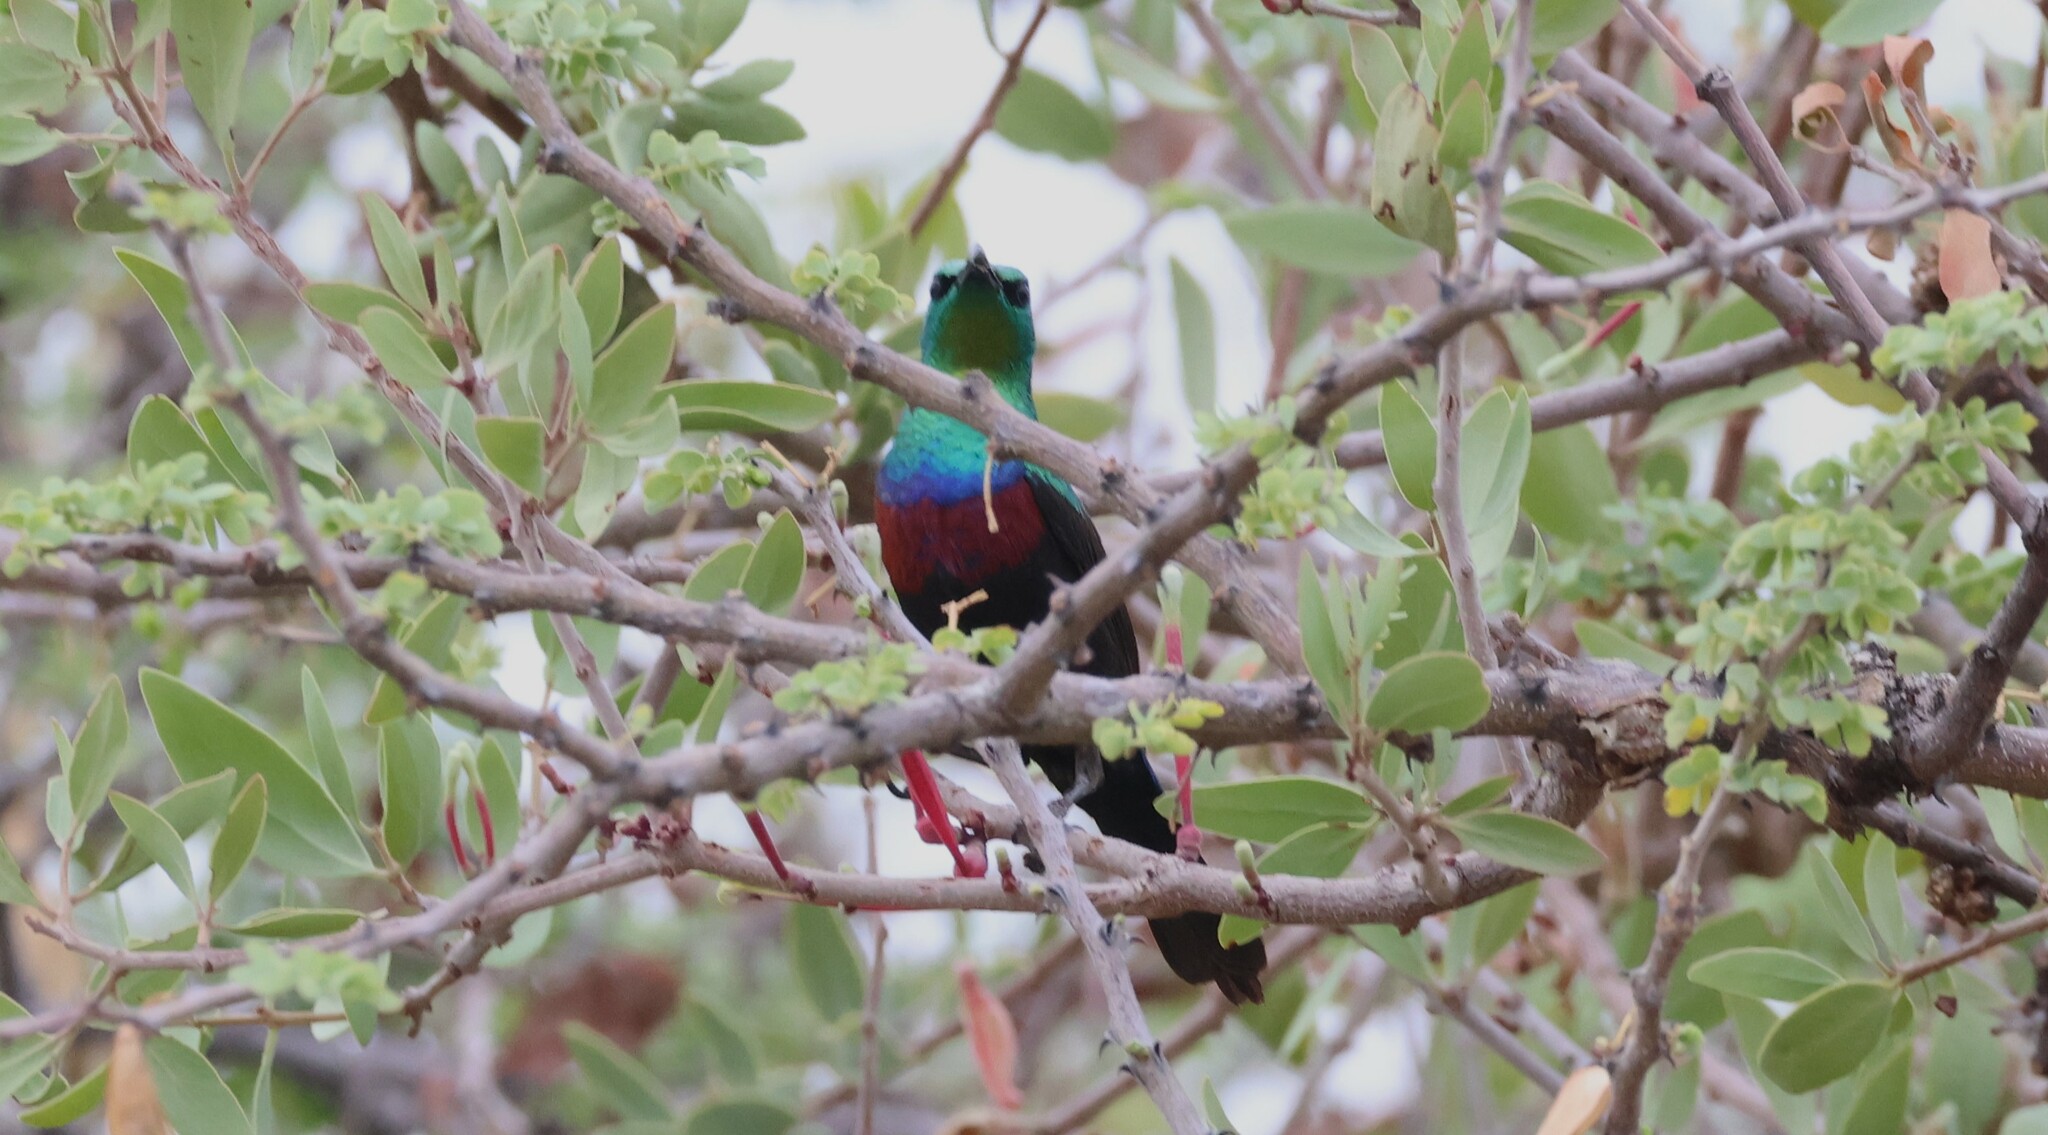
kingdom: Animalia
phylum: Chordata
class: Aves
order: Passeriformes
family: Nectariniidae
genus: Cinnyris
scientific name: Cinnyris mariquensis
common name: Marico sunbird
